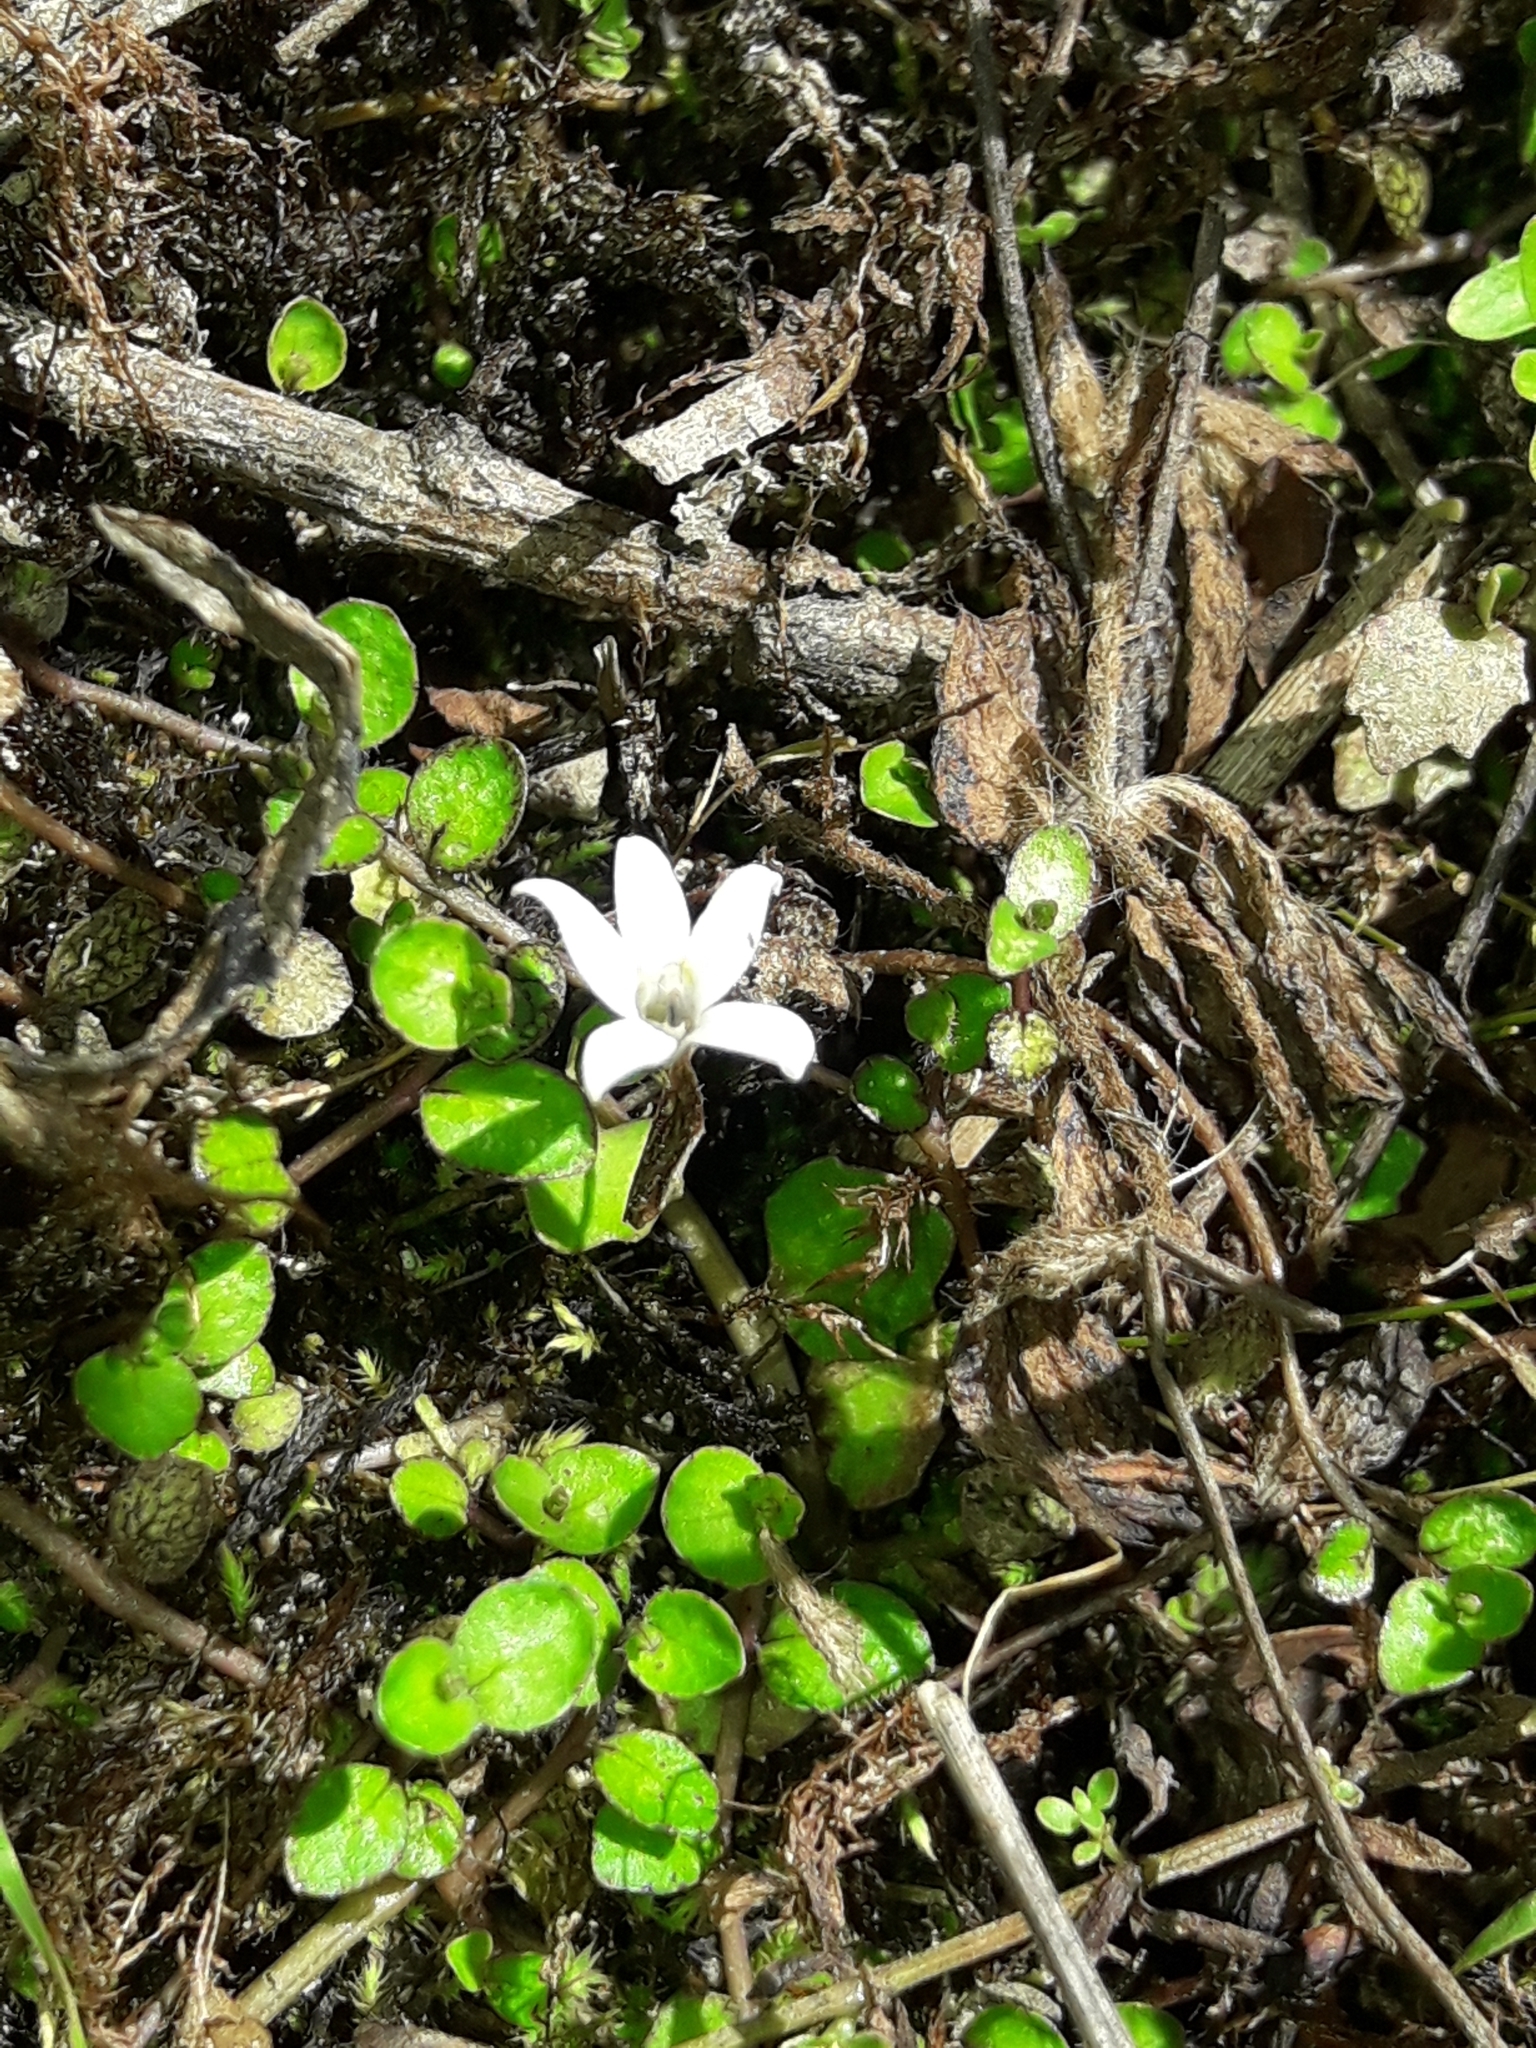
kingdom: Plantae
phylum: Tracheophyta
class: Magnoliopsida
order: Asterales
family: Campanulaceae
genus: Lobelia
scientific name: Lobelia carens
